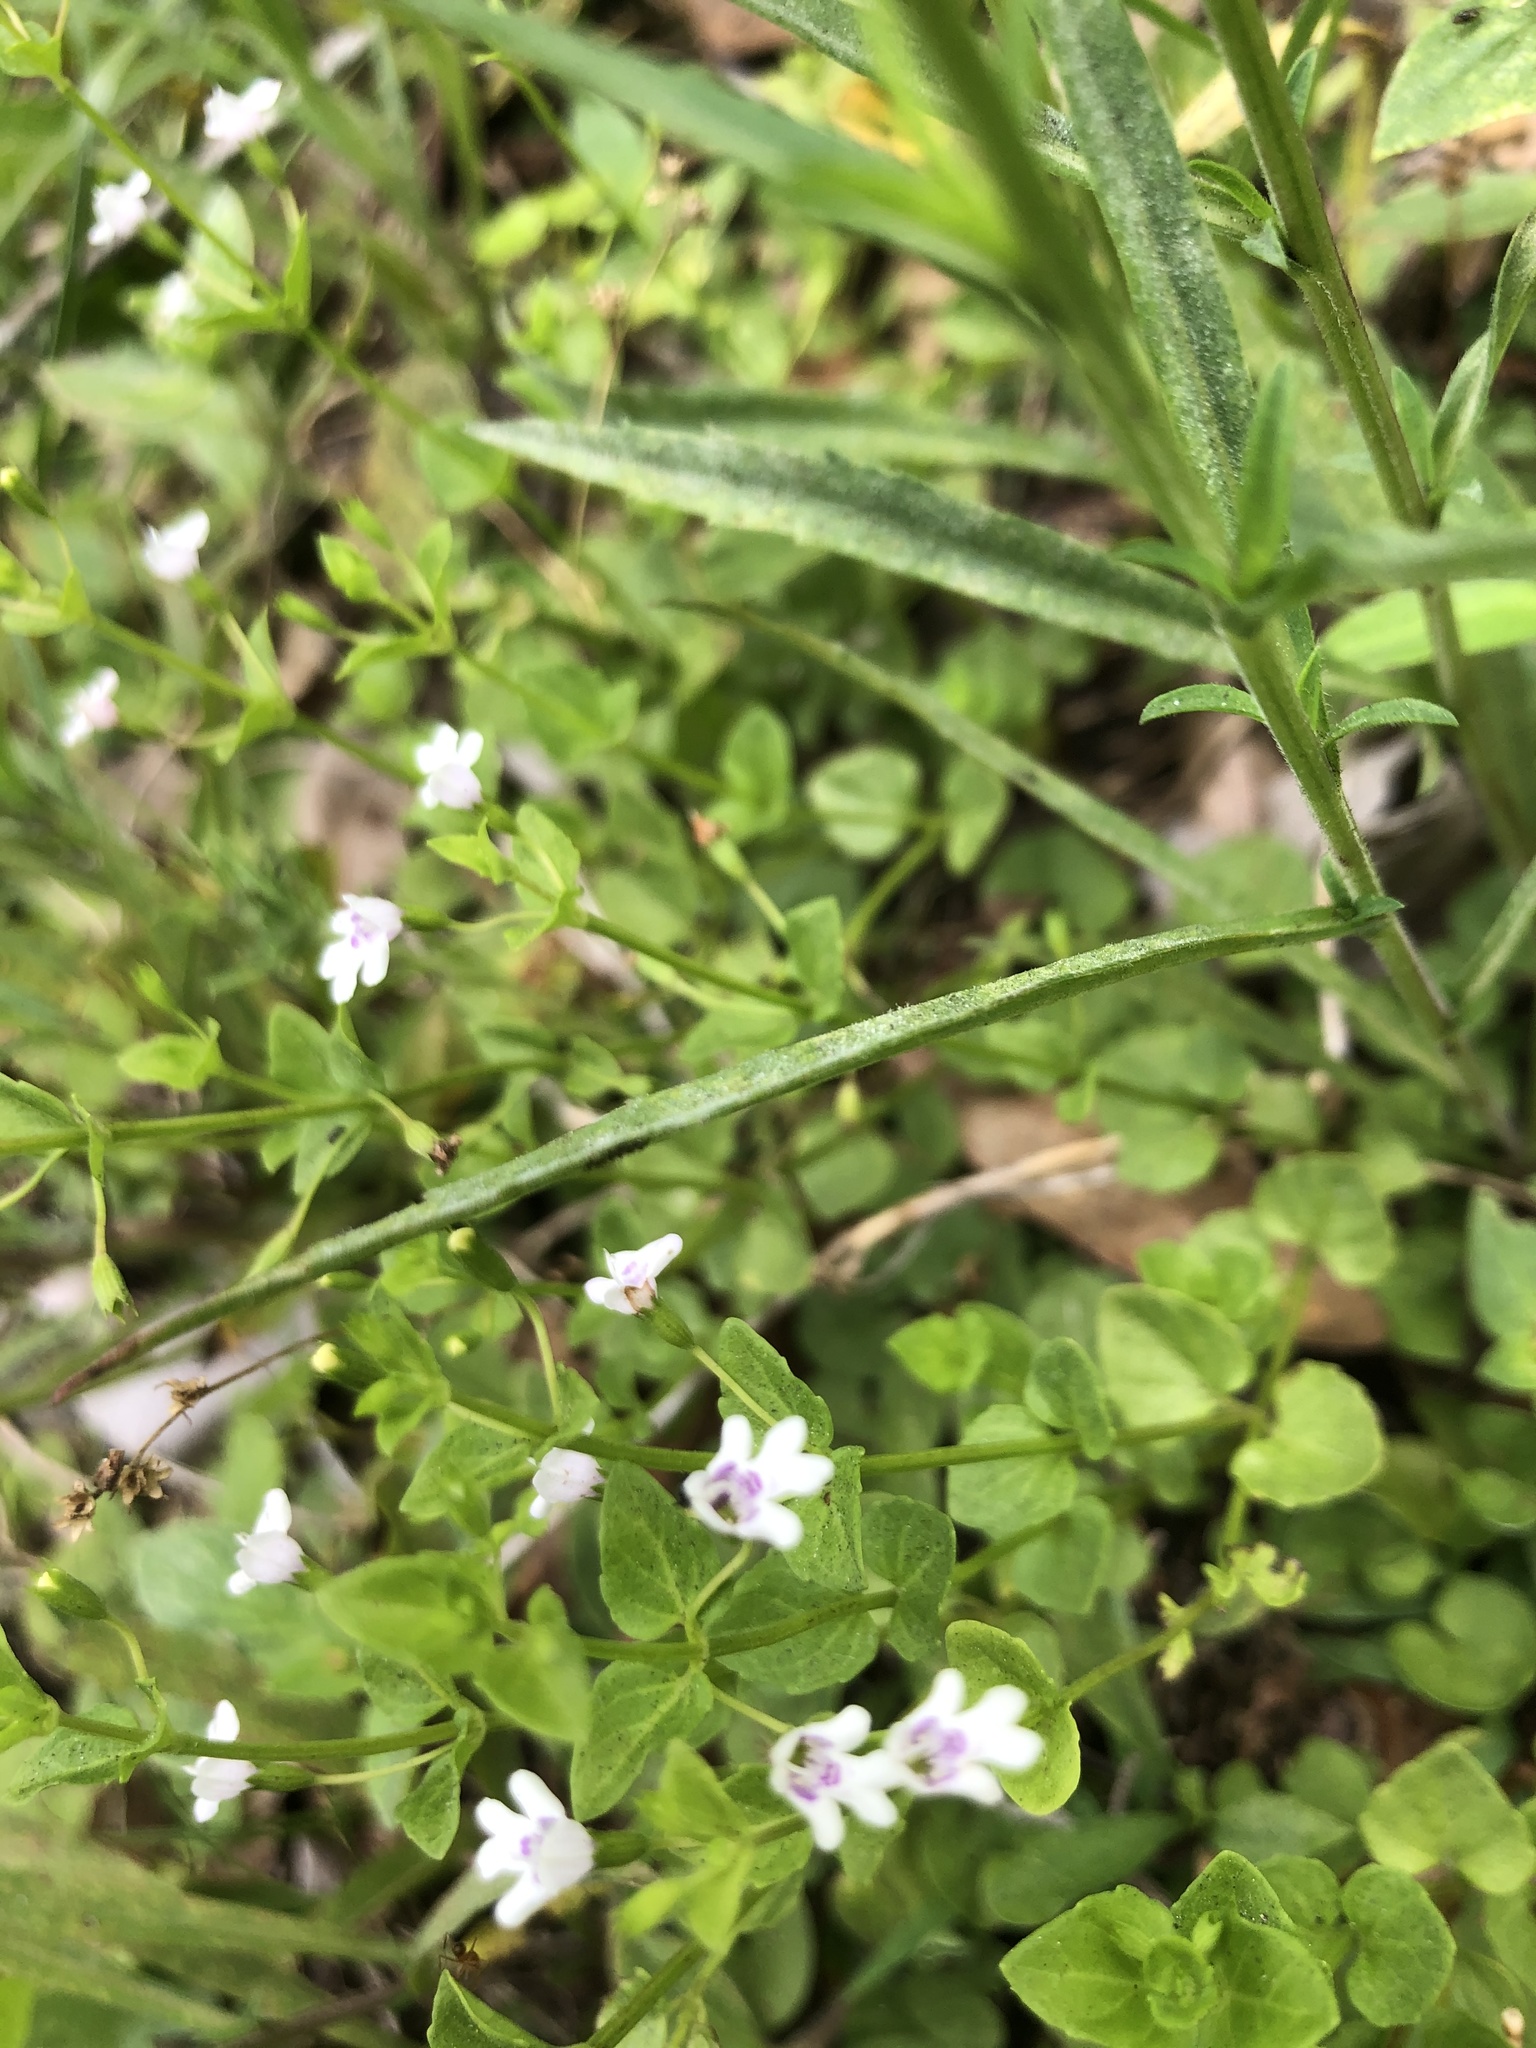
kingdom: Plantae
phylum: Tracheophyta
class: Magnoliopsida
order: Lamiales
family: Lamiaceae
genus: Clinopodium
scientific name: Clinopodium brownei
